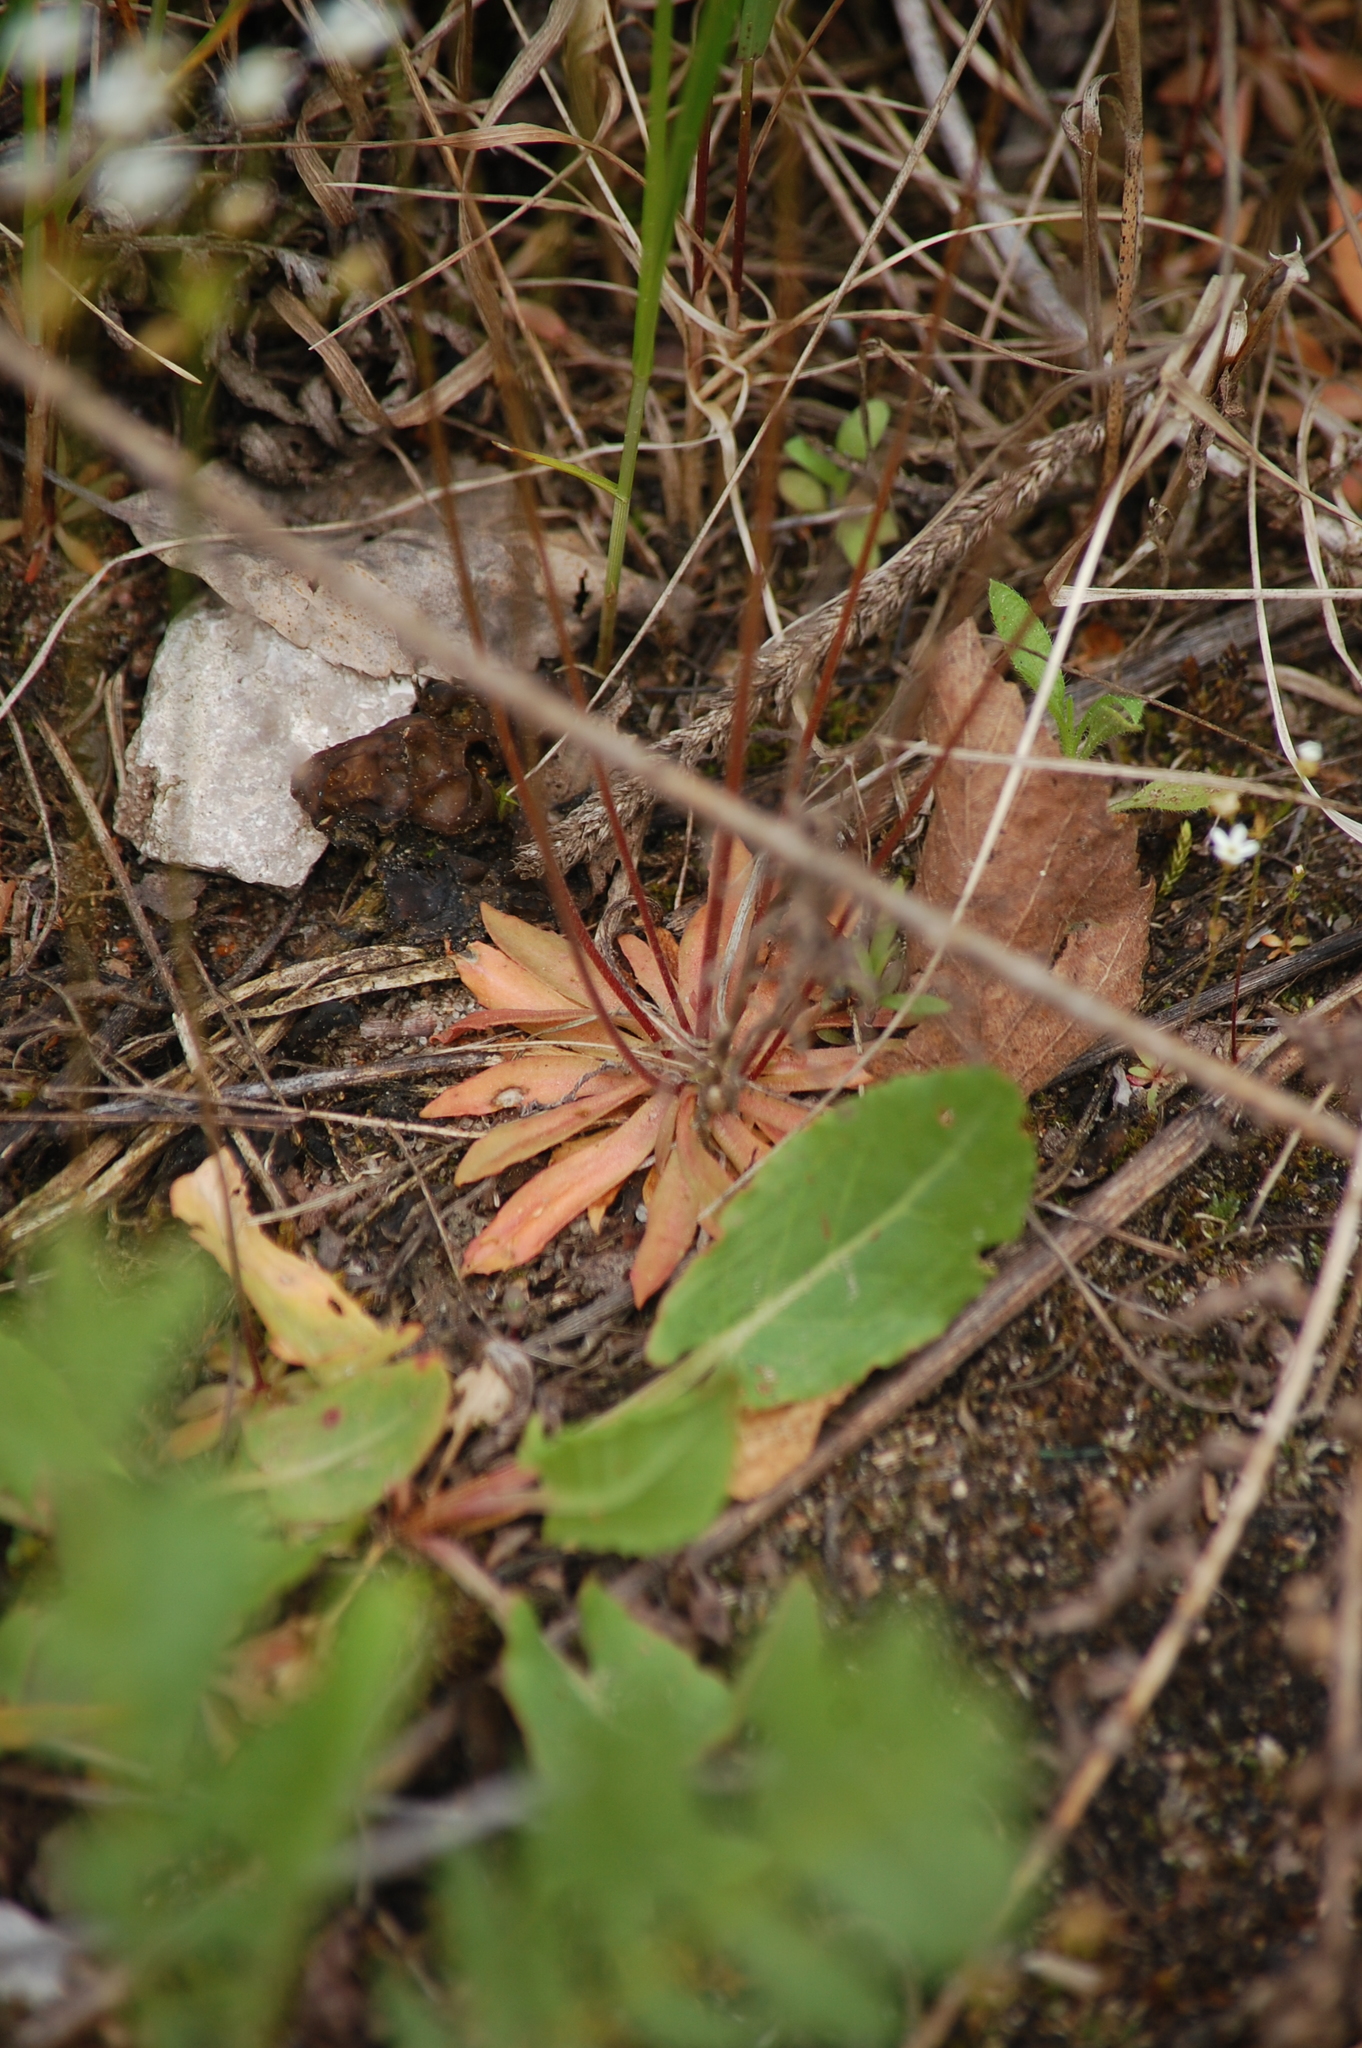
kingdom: Plantae
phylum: Tracheophyta
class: Magnoliopsida
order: Ericales
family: Primulaceae
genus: Androsace
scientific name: Androsace septentrionalis
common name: Hairy northern fairy-candelabra
